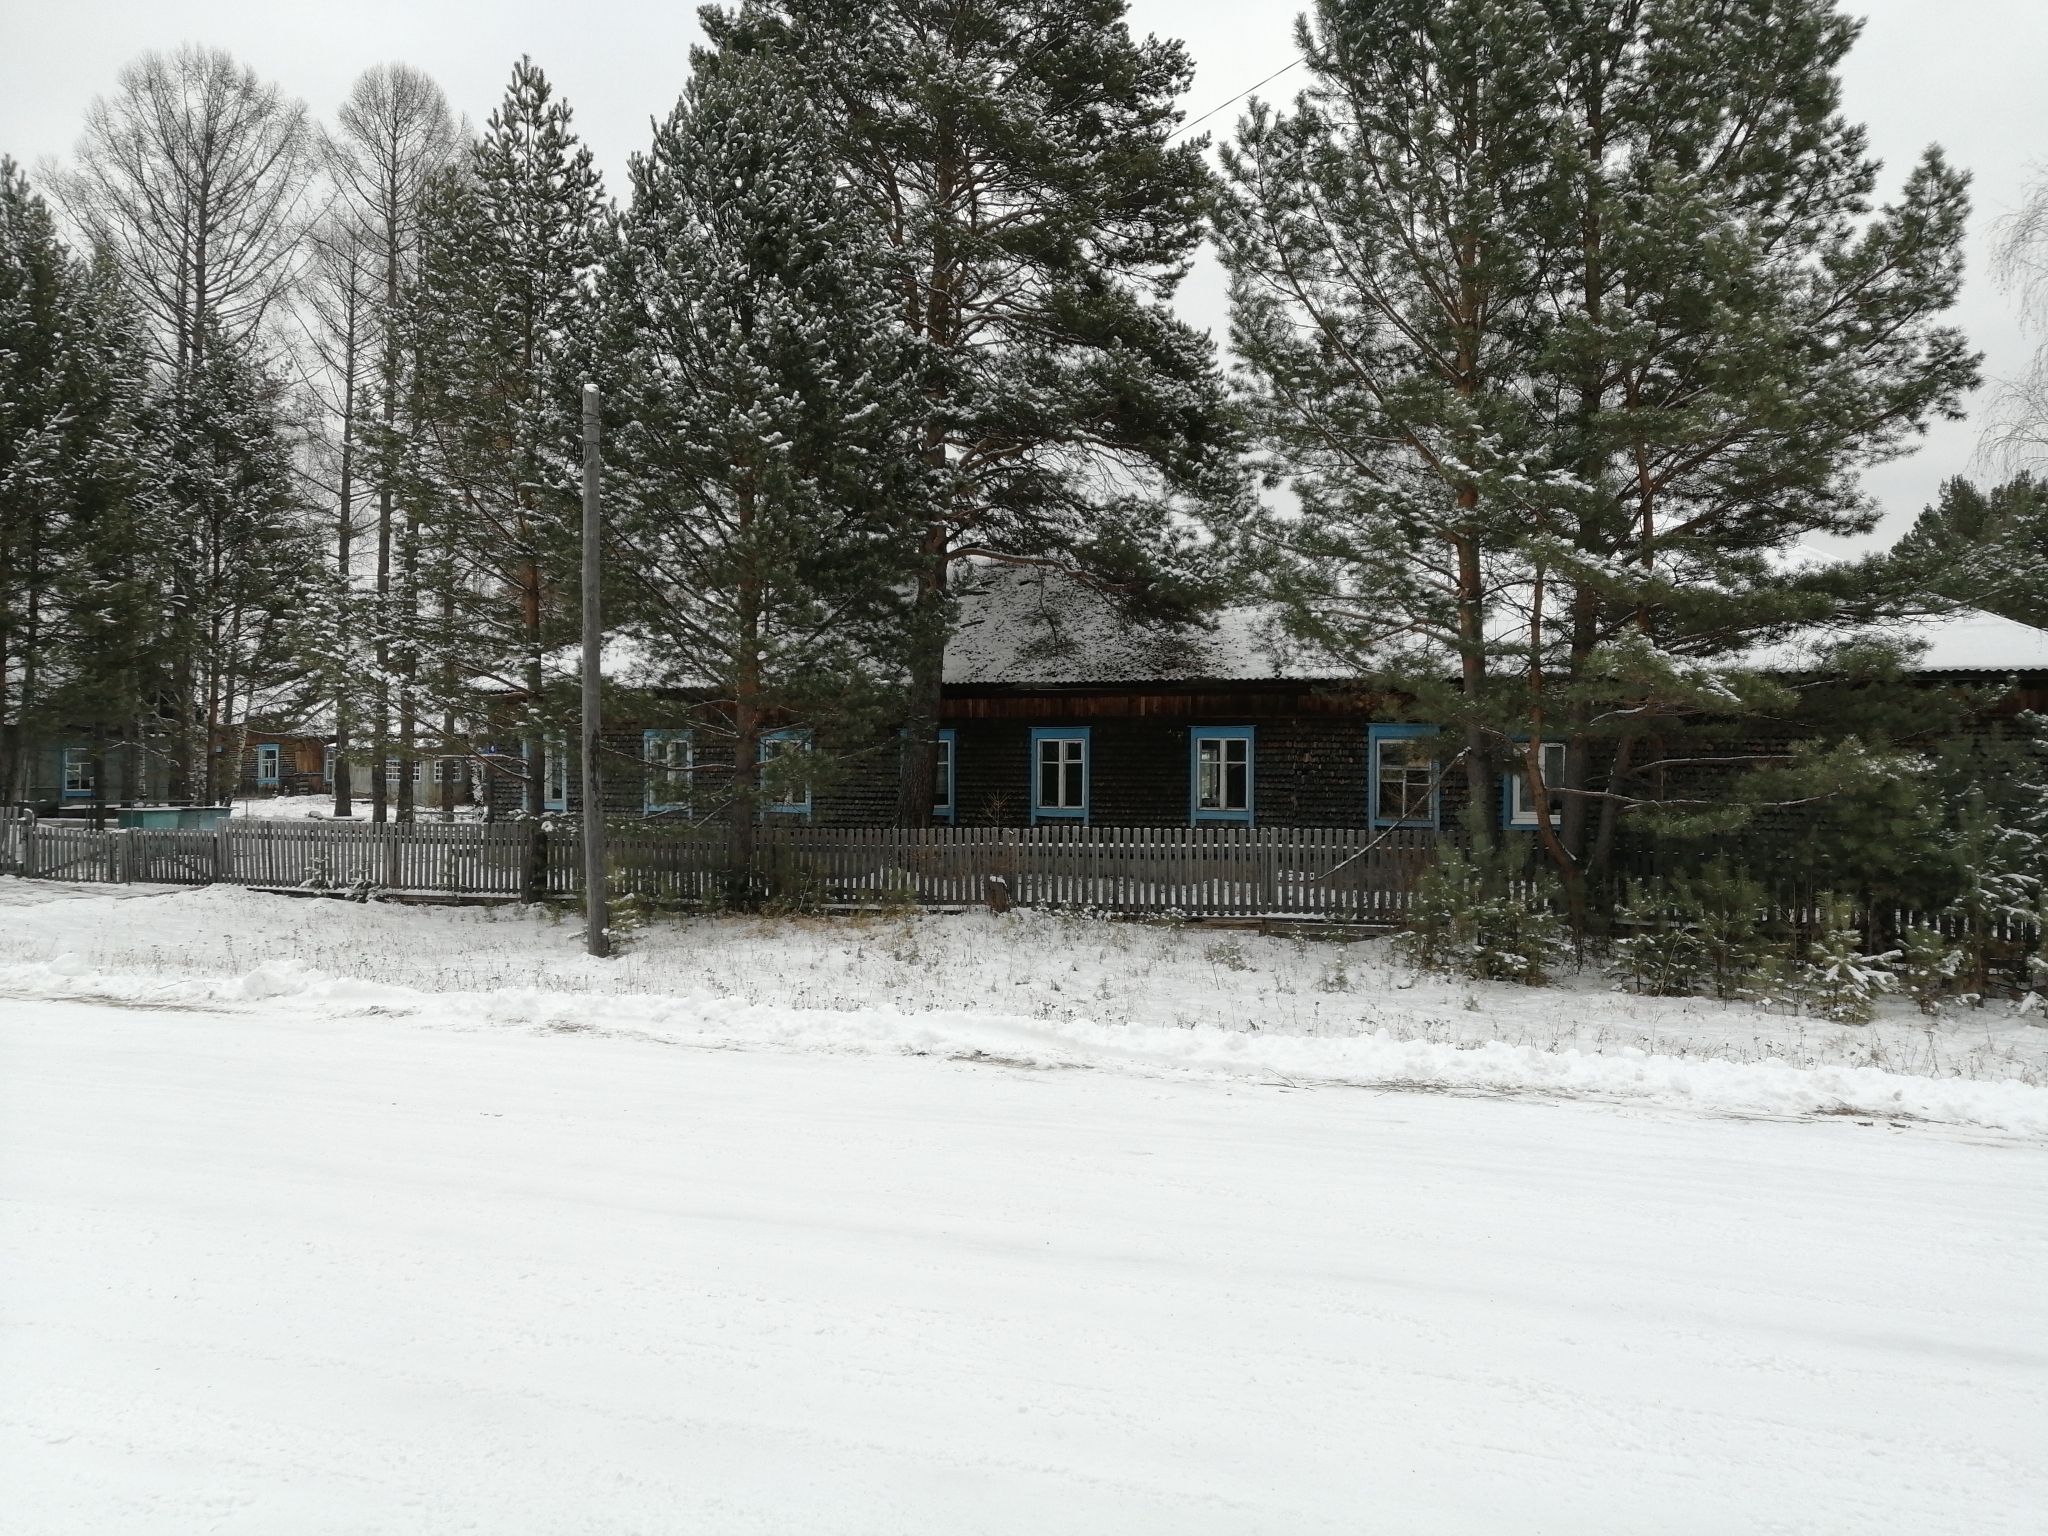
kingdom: Plantae
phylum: Tracheophyta
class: Pinopsida
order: Pinales
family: Pinaceae
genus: Pinus
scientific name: Pinus sylvestris
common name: Scots pine
